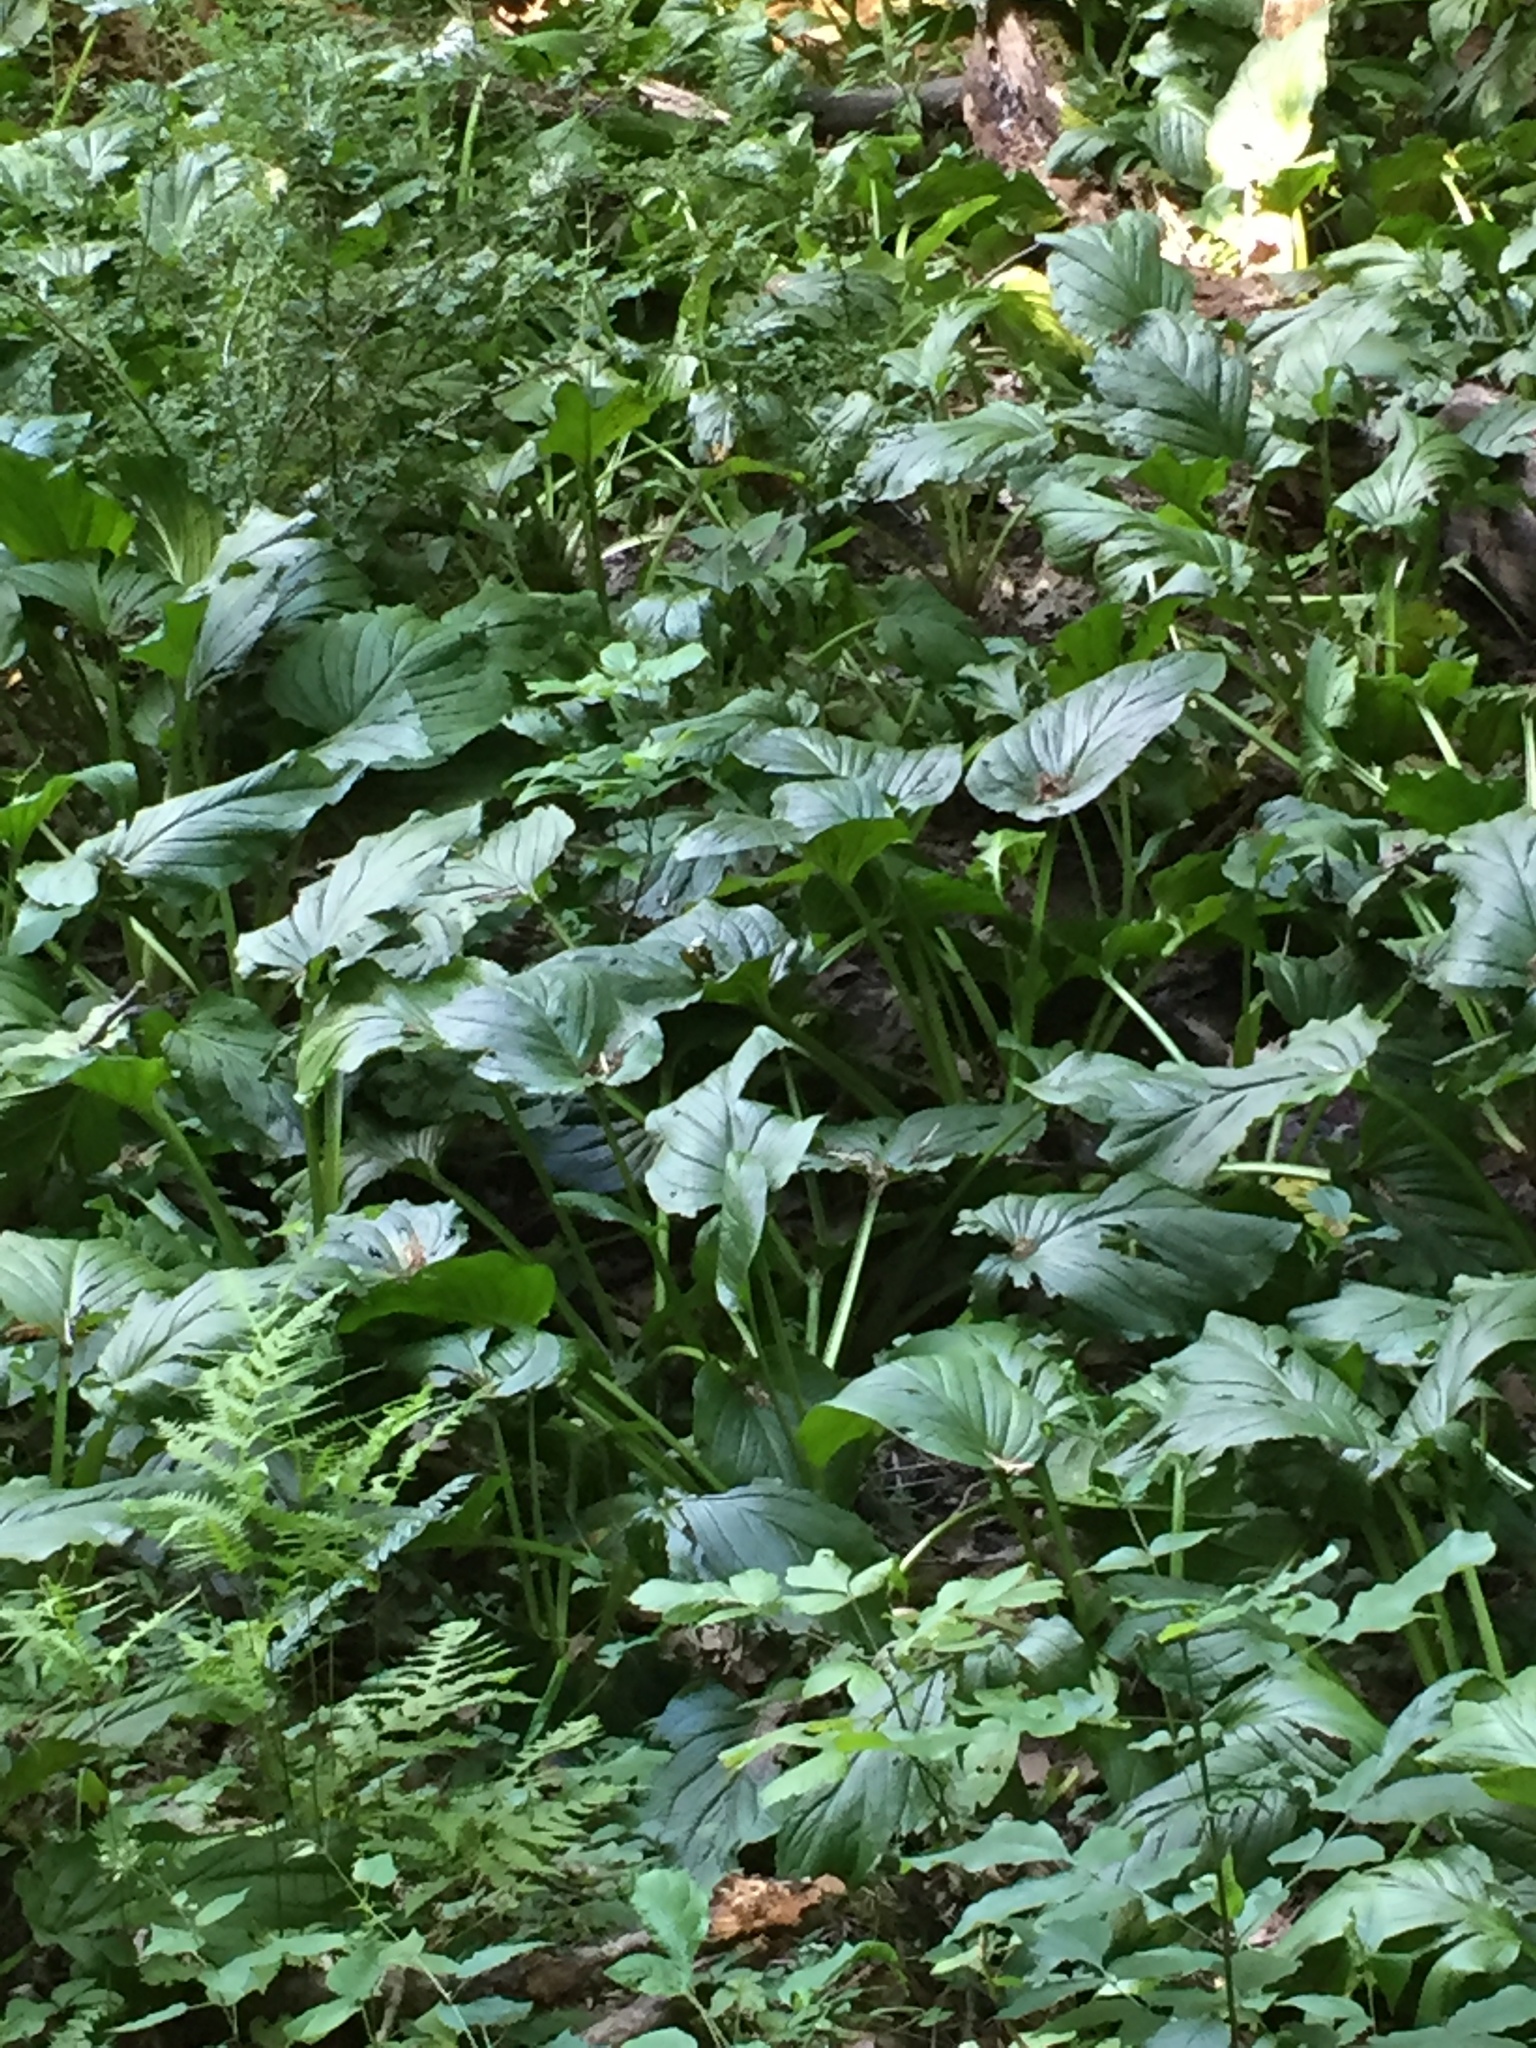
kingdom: Plantae
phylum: Tracheophyta
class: Liliopsida
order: Alismatales
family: Araceae
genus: Symplocarpus
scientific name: Symplocarpus foetidus
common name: Eastern skunk cabbage
